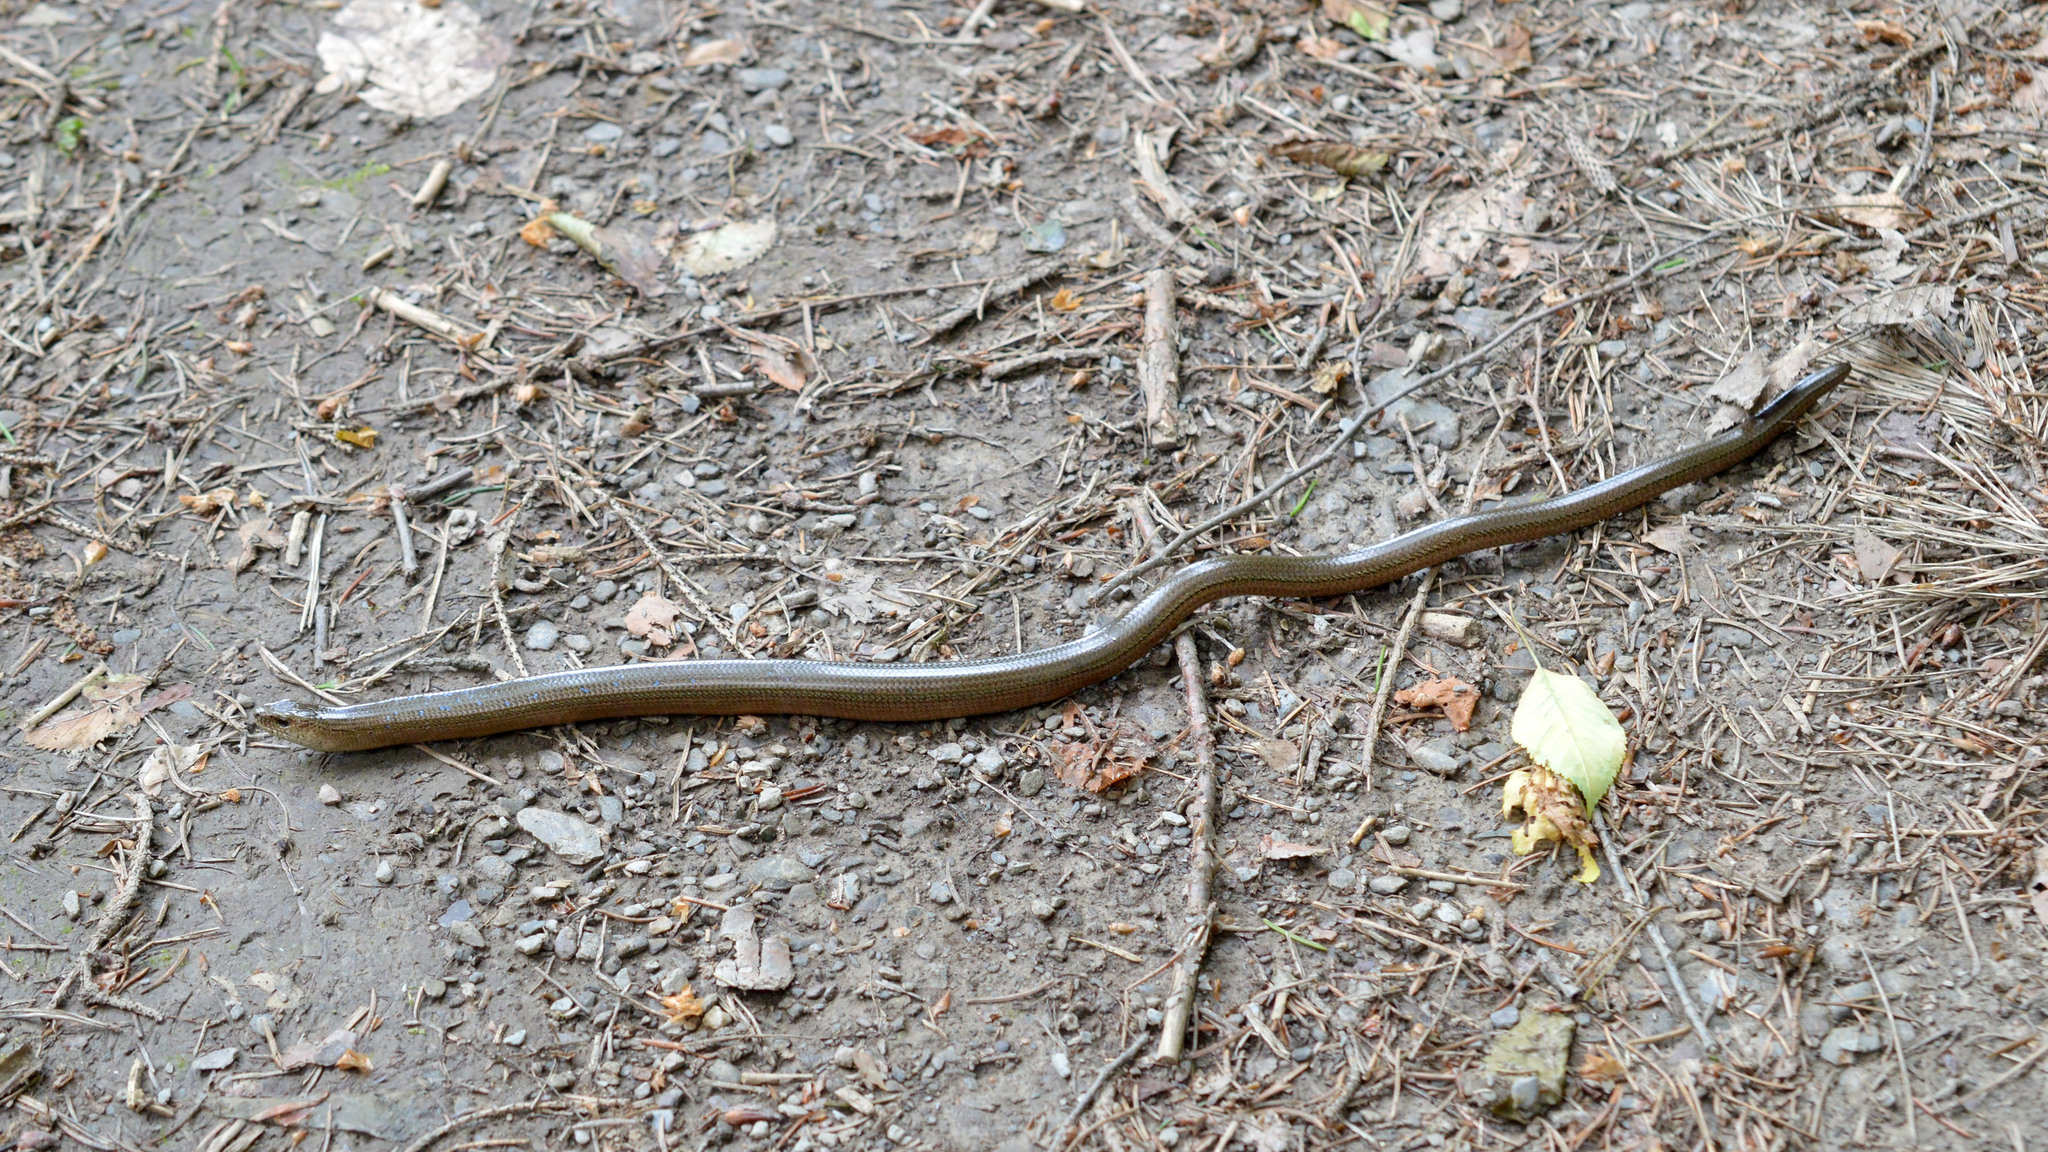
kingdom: Animalia
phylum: Chordata
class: Squamata
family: Anguidae
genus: Anguis
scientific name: Anguis colchica
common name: Slow worm
